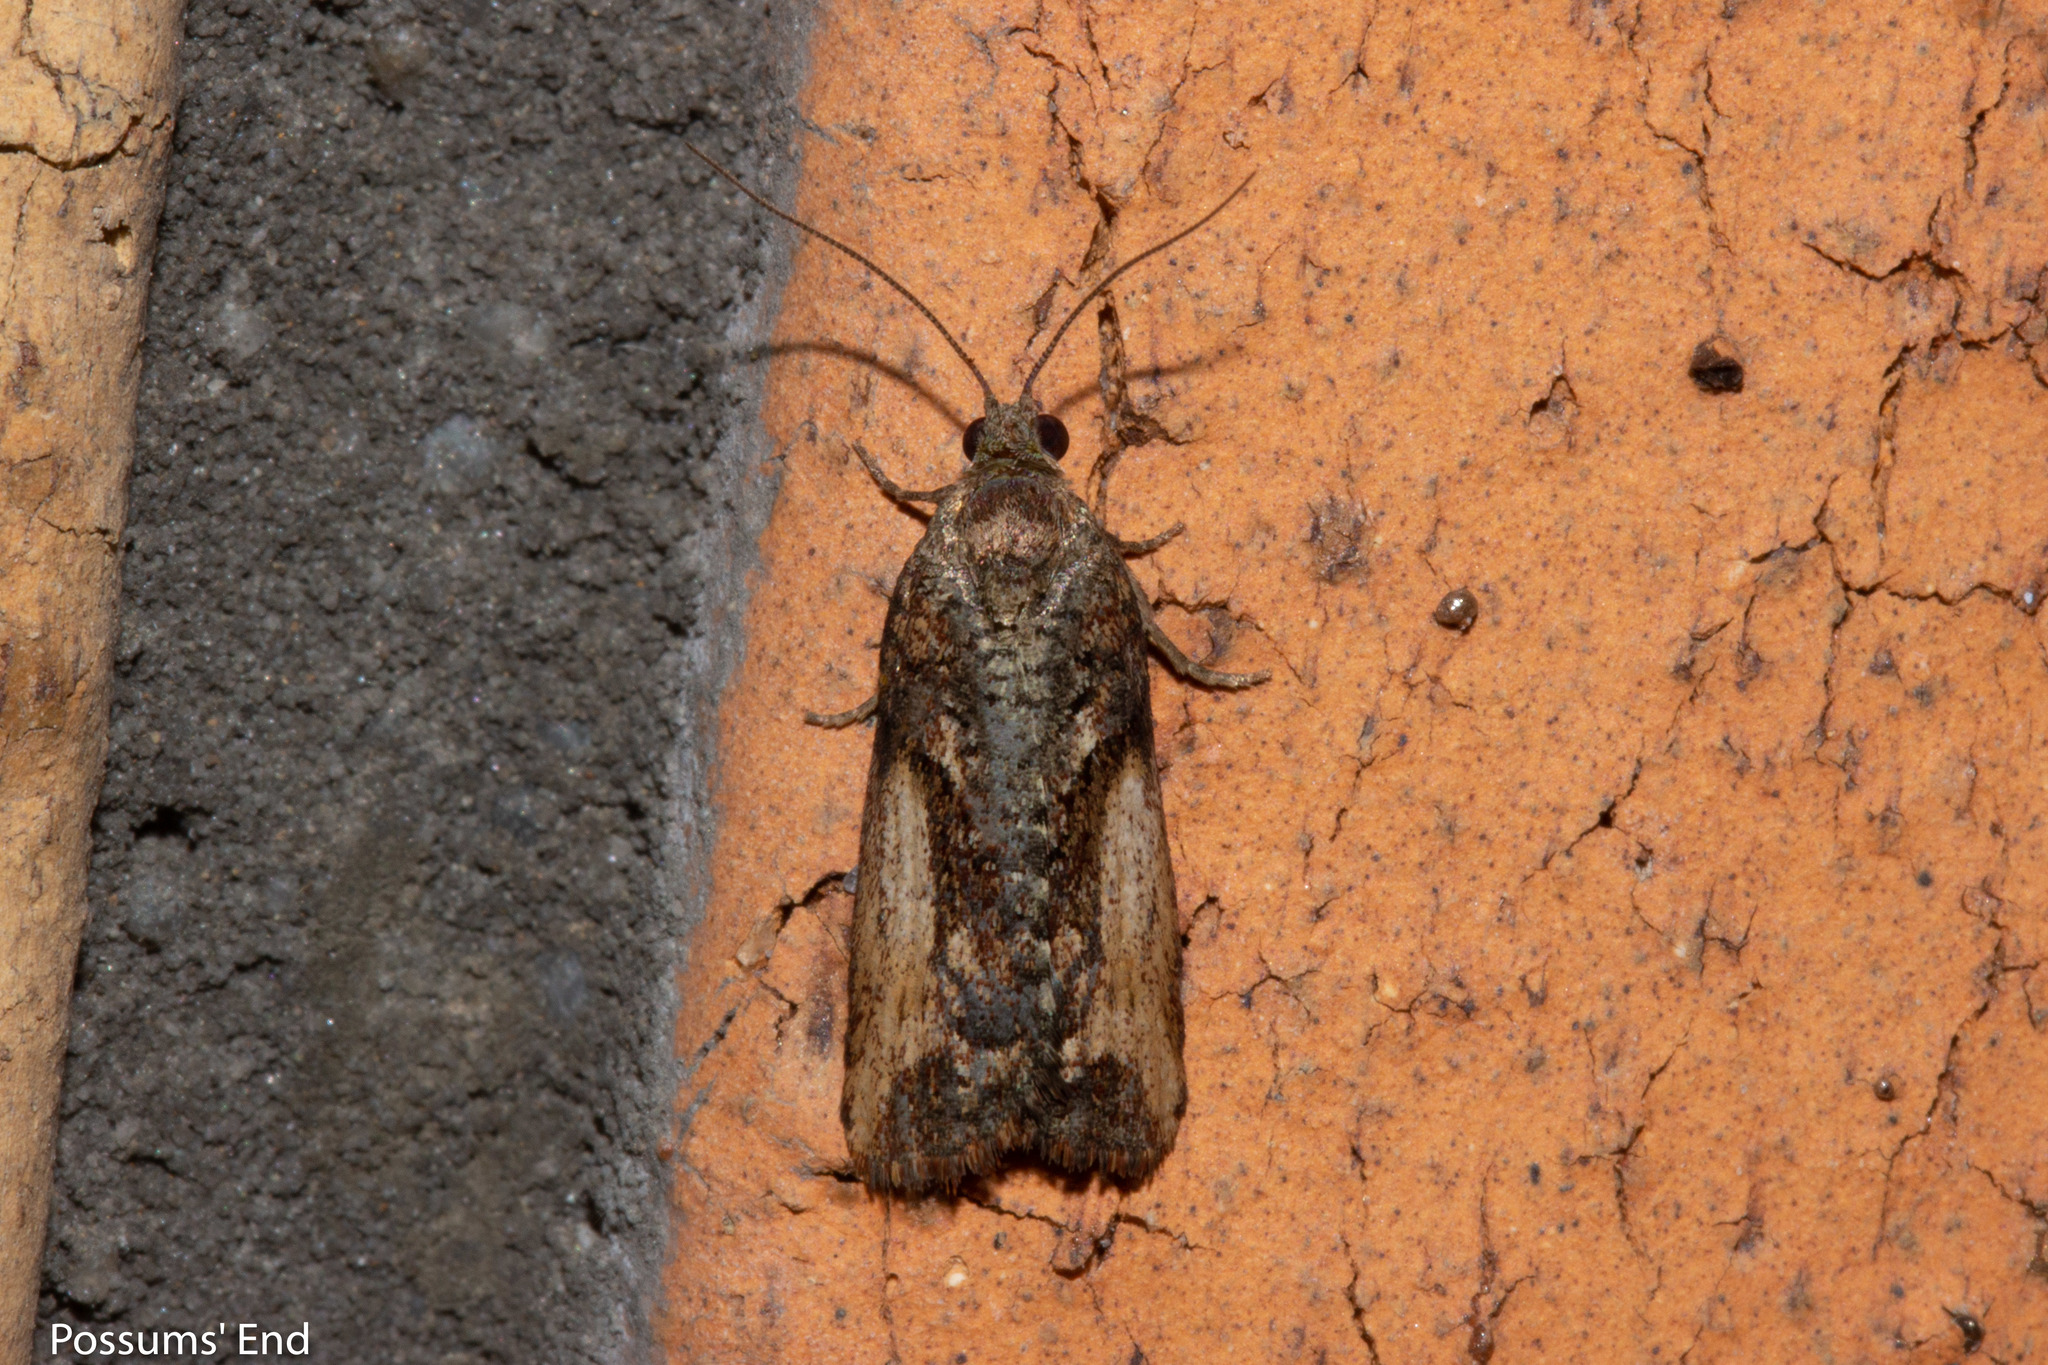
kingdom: Animalia
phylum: Arthropoda
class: Insecta
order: Lepidoptera
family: Tortricidae
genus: Harmologa
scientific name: Harmologa scoliastis
